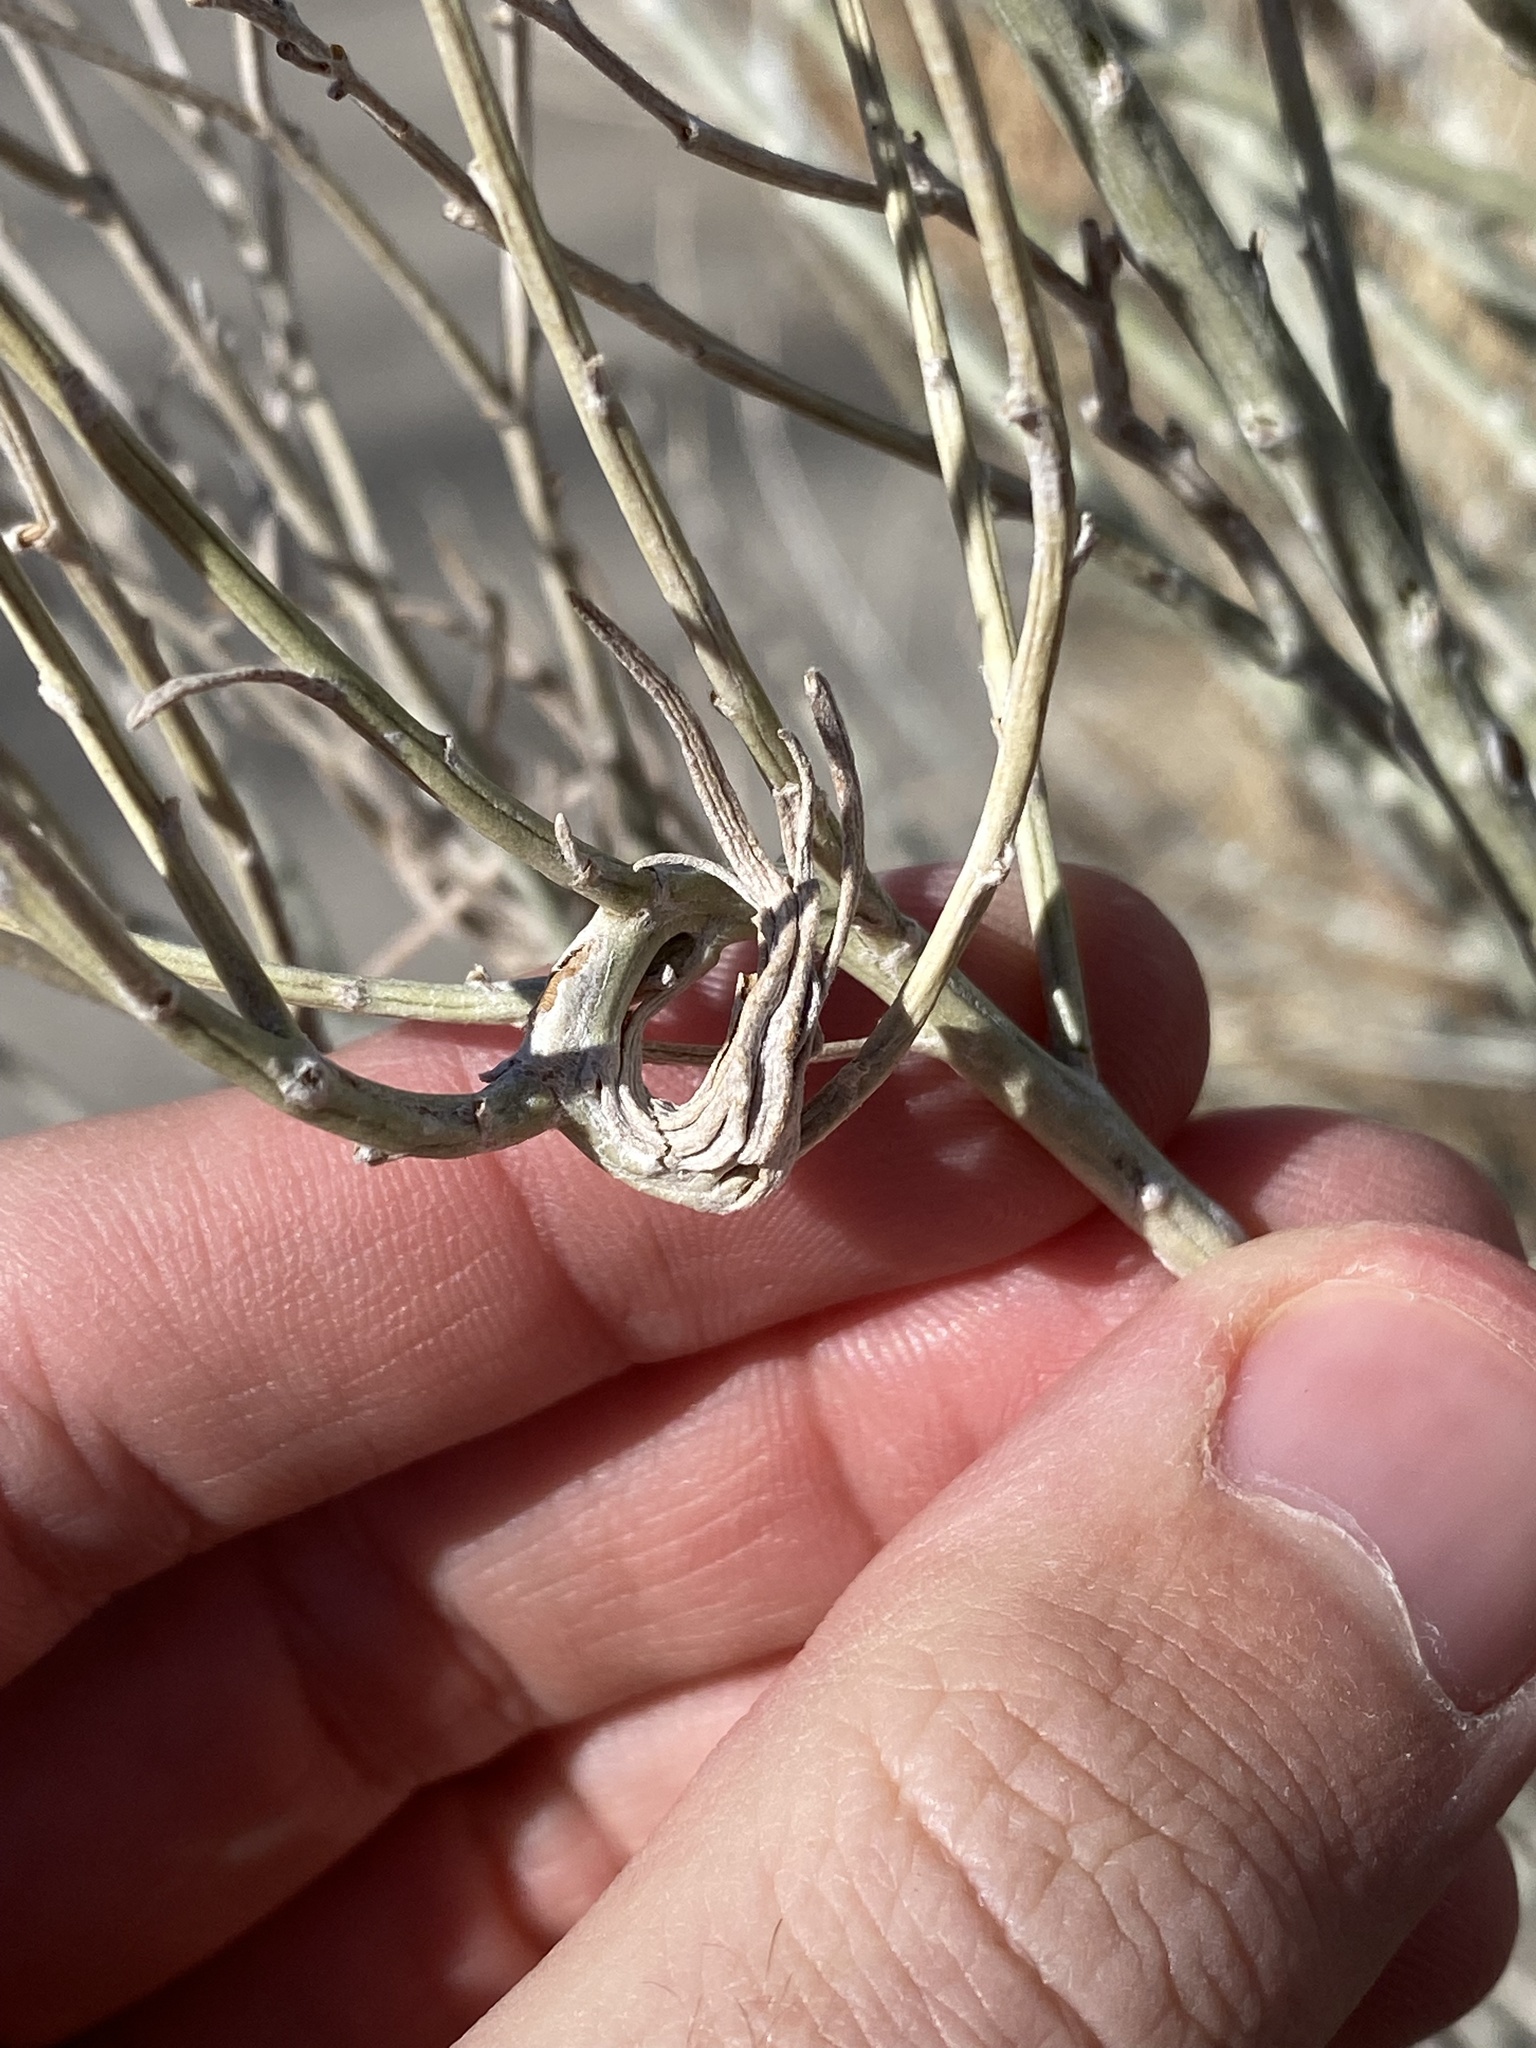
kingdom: Animalia
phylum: Arthropoda
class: Insecta
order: Lepidoptera
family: Gelechiidae
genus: Gnorimoschema
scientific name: Gnorimoschema octomaculella
